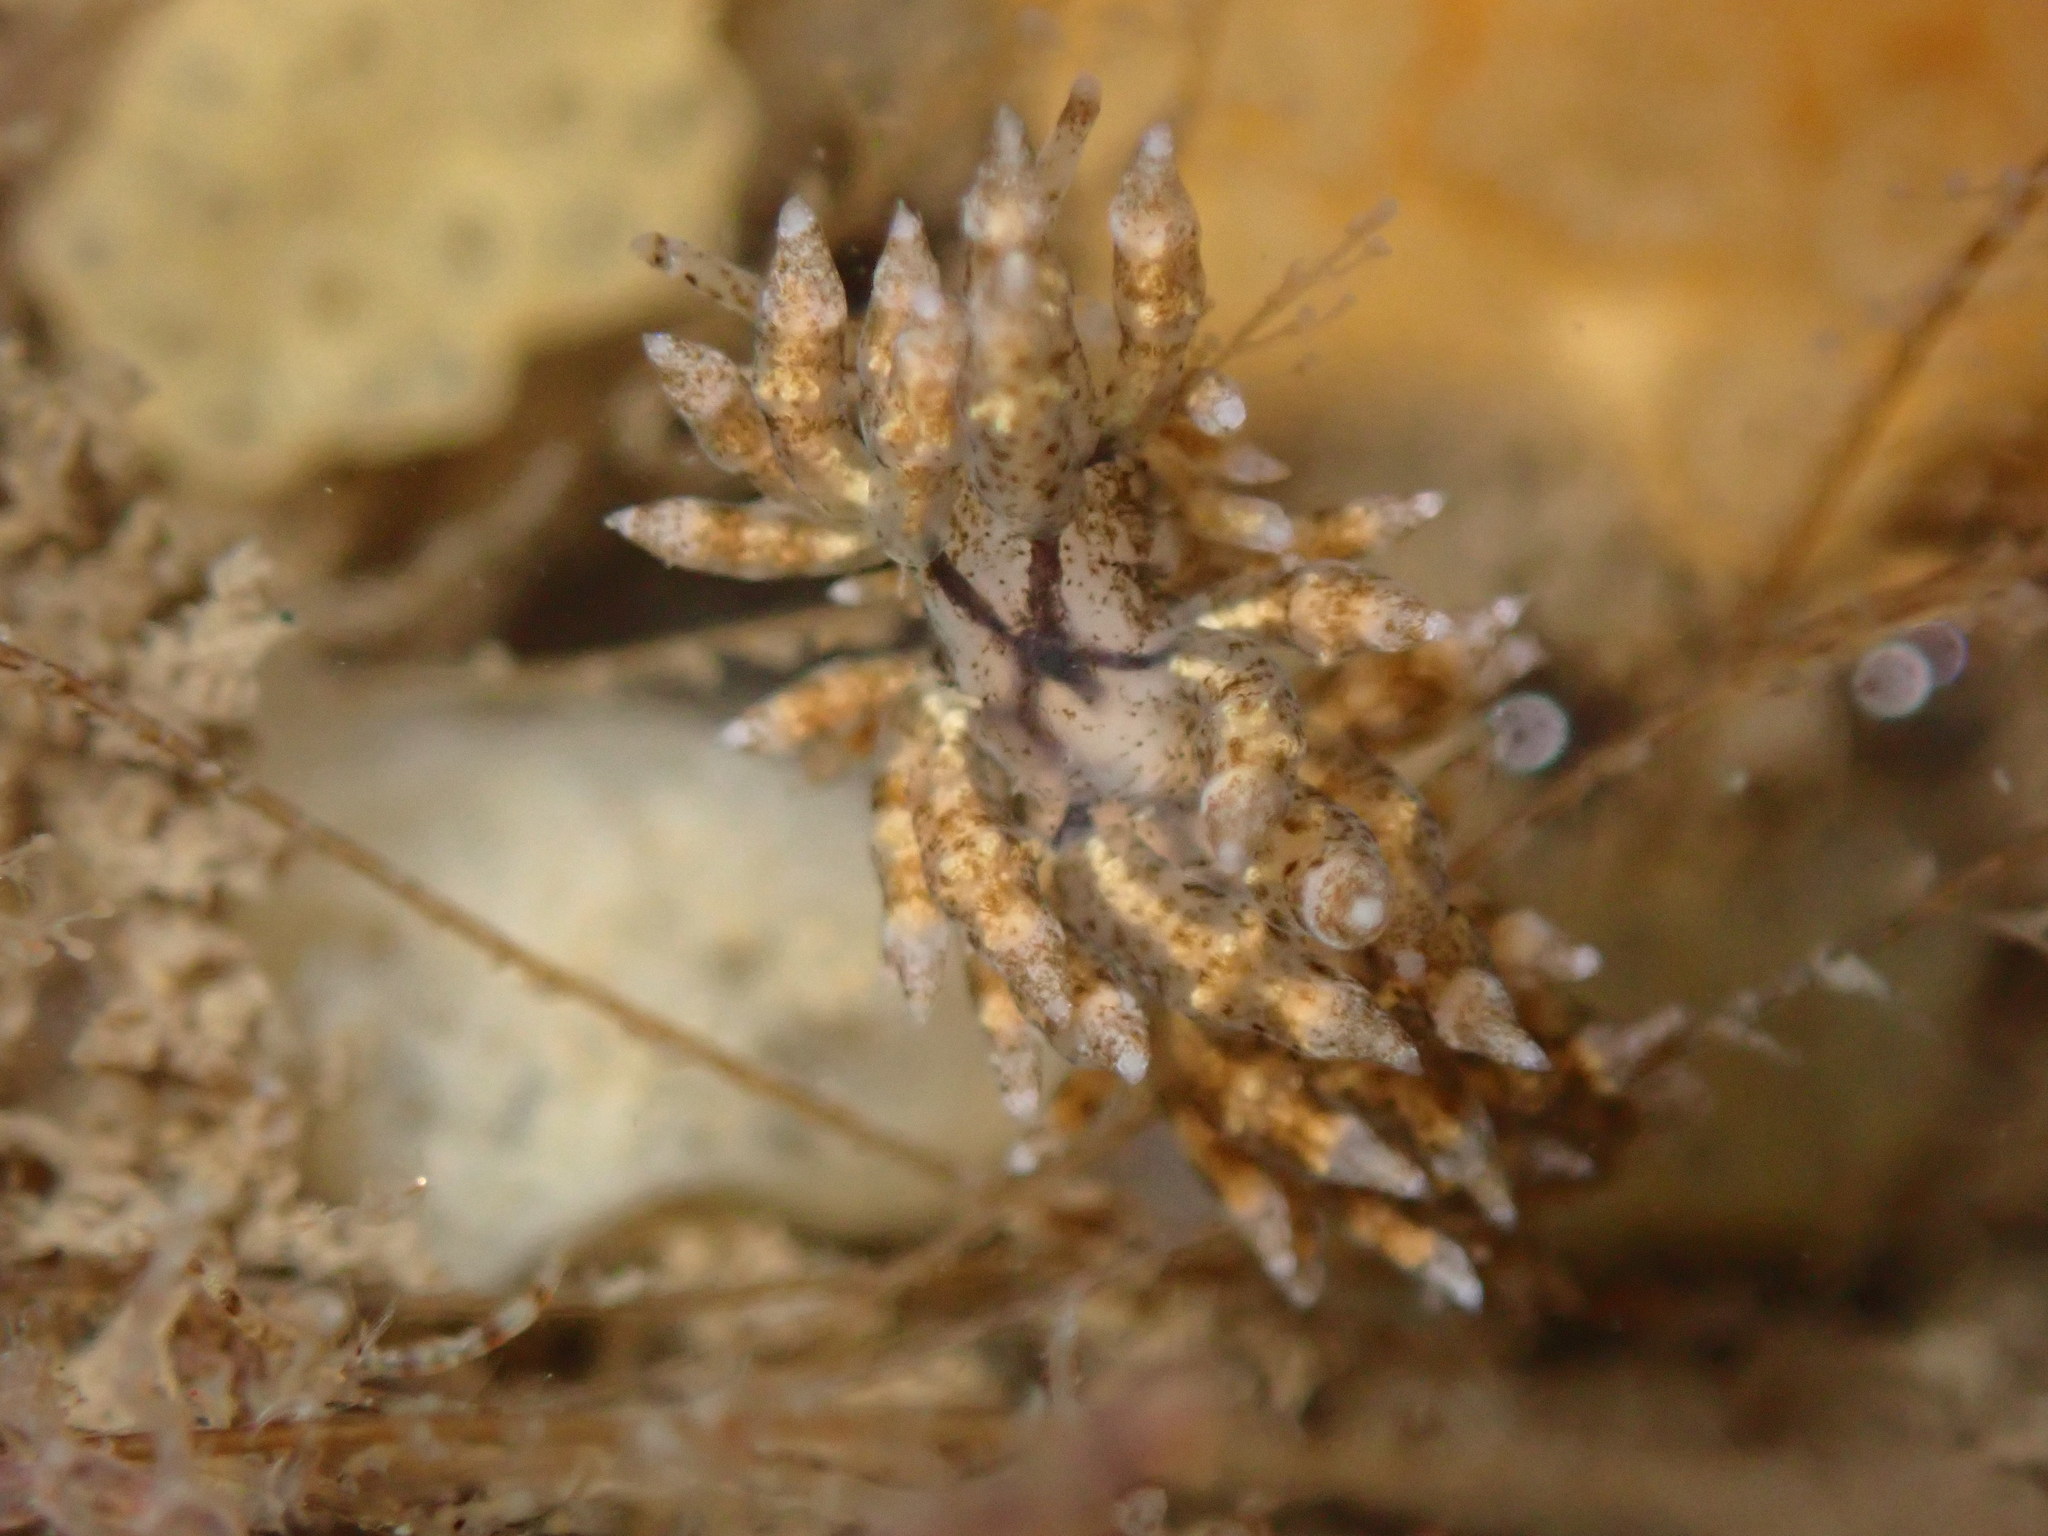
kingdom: Animalia
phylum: Mollusca
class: Gastropoda
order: Nudibranchia
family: Eubranchidae
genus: Eubranchus
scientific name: Eubranchus rustyus
